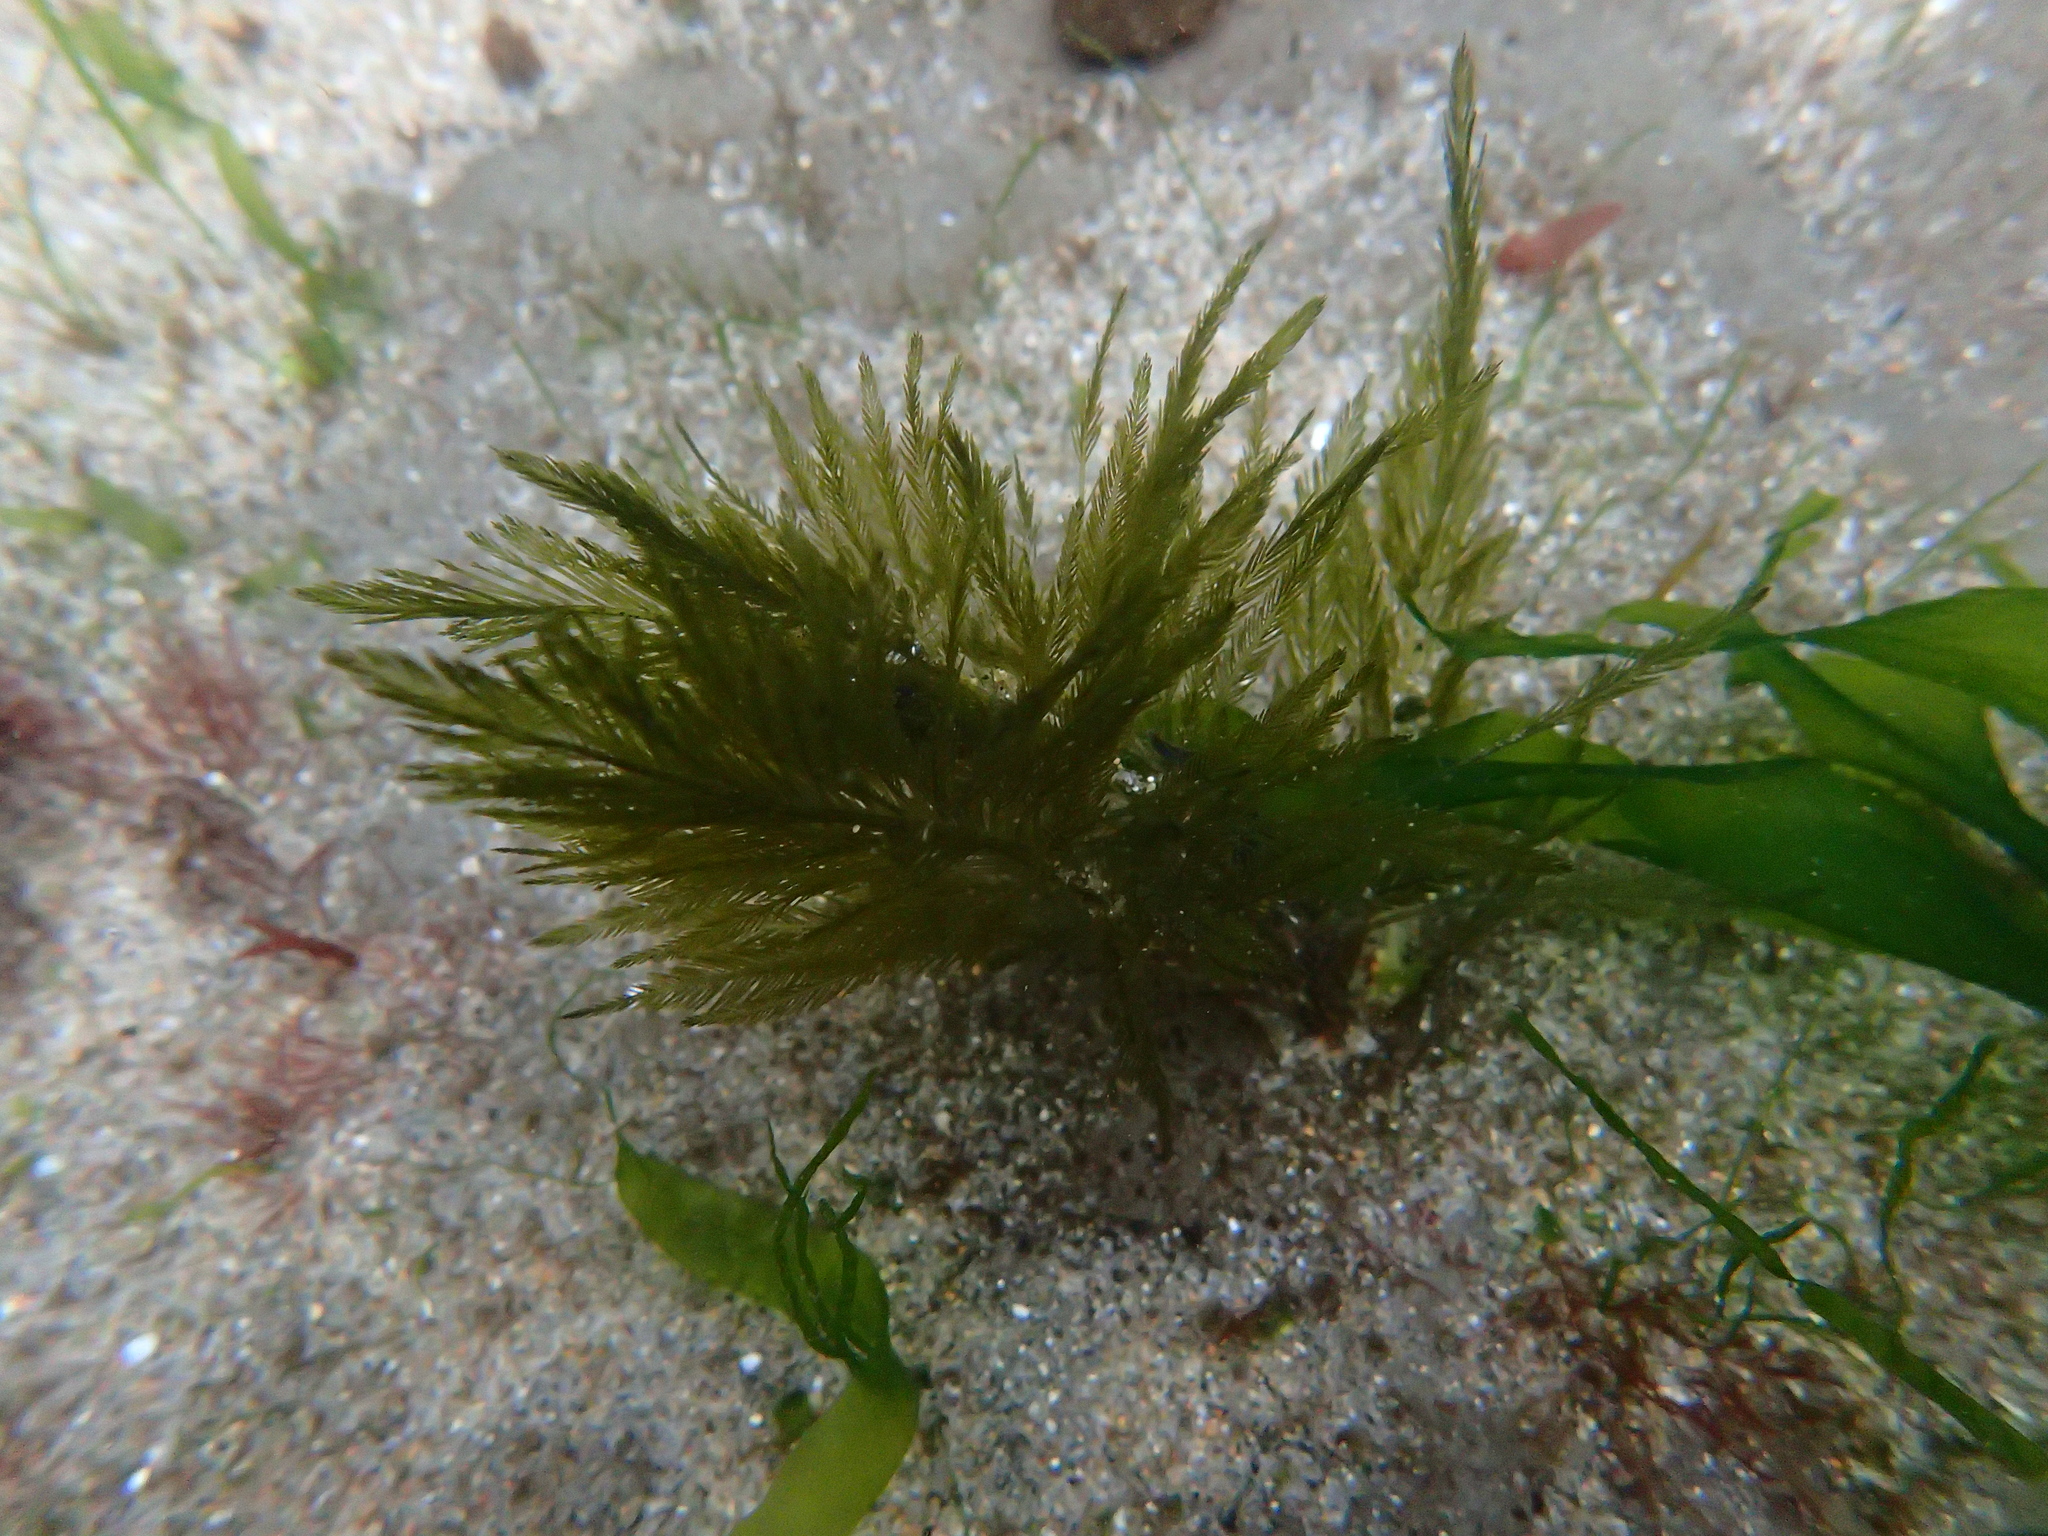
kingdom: Plantae
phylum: Chlorophyta
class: Ulvophyceae
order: Bryopsidales
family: Bryopsidaceae
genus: Bryopsis
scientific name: Bryopsis corticulans
